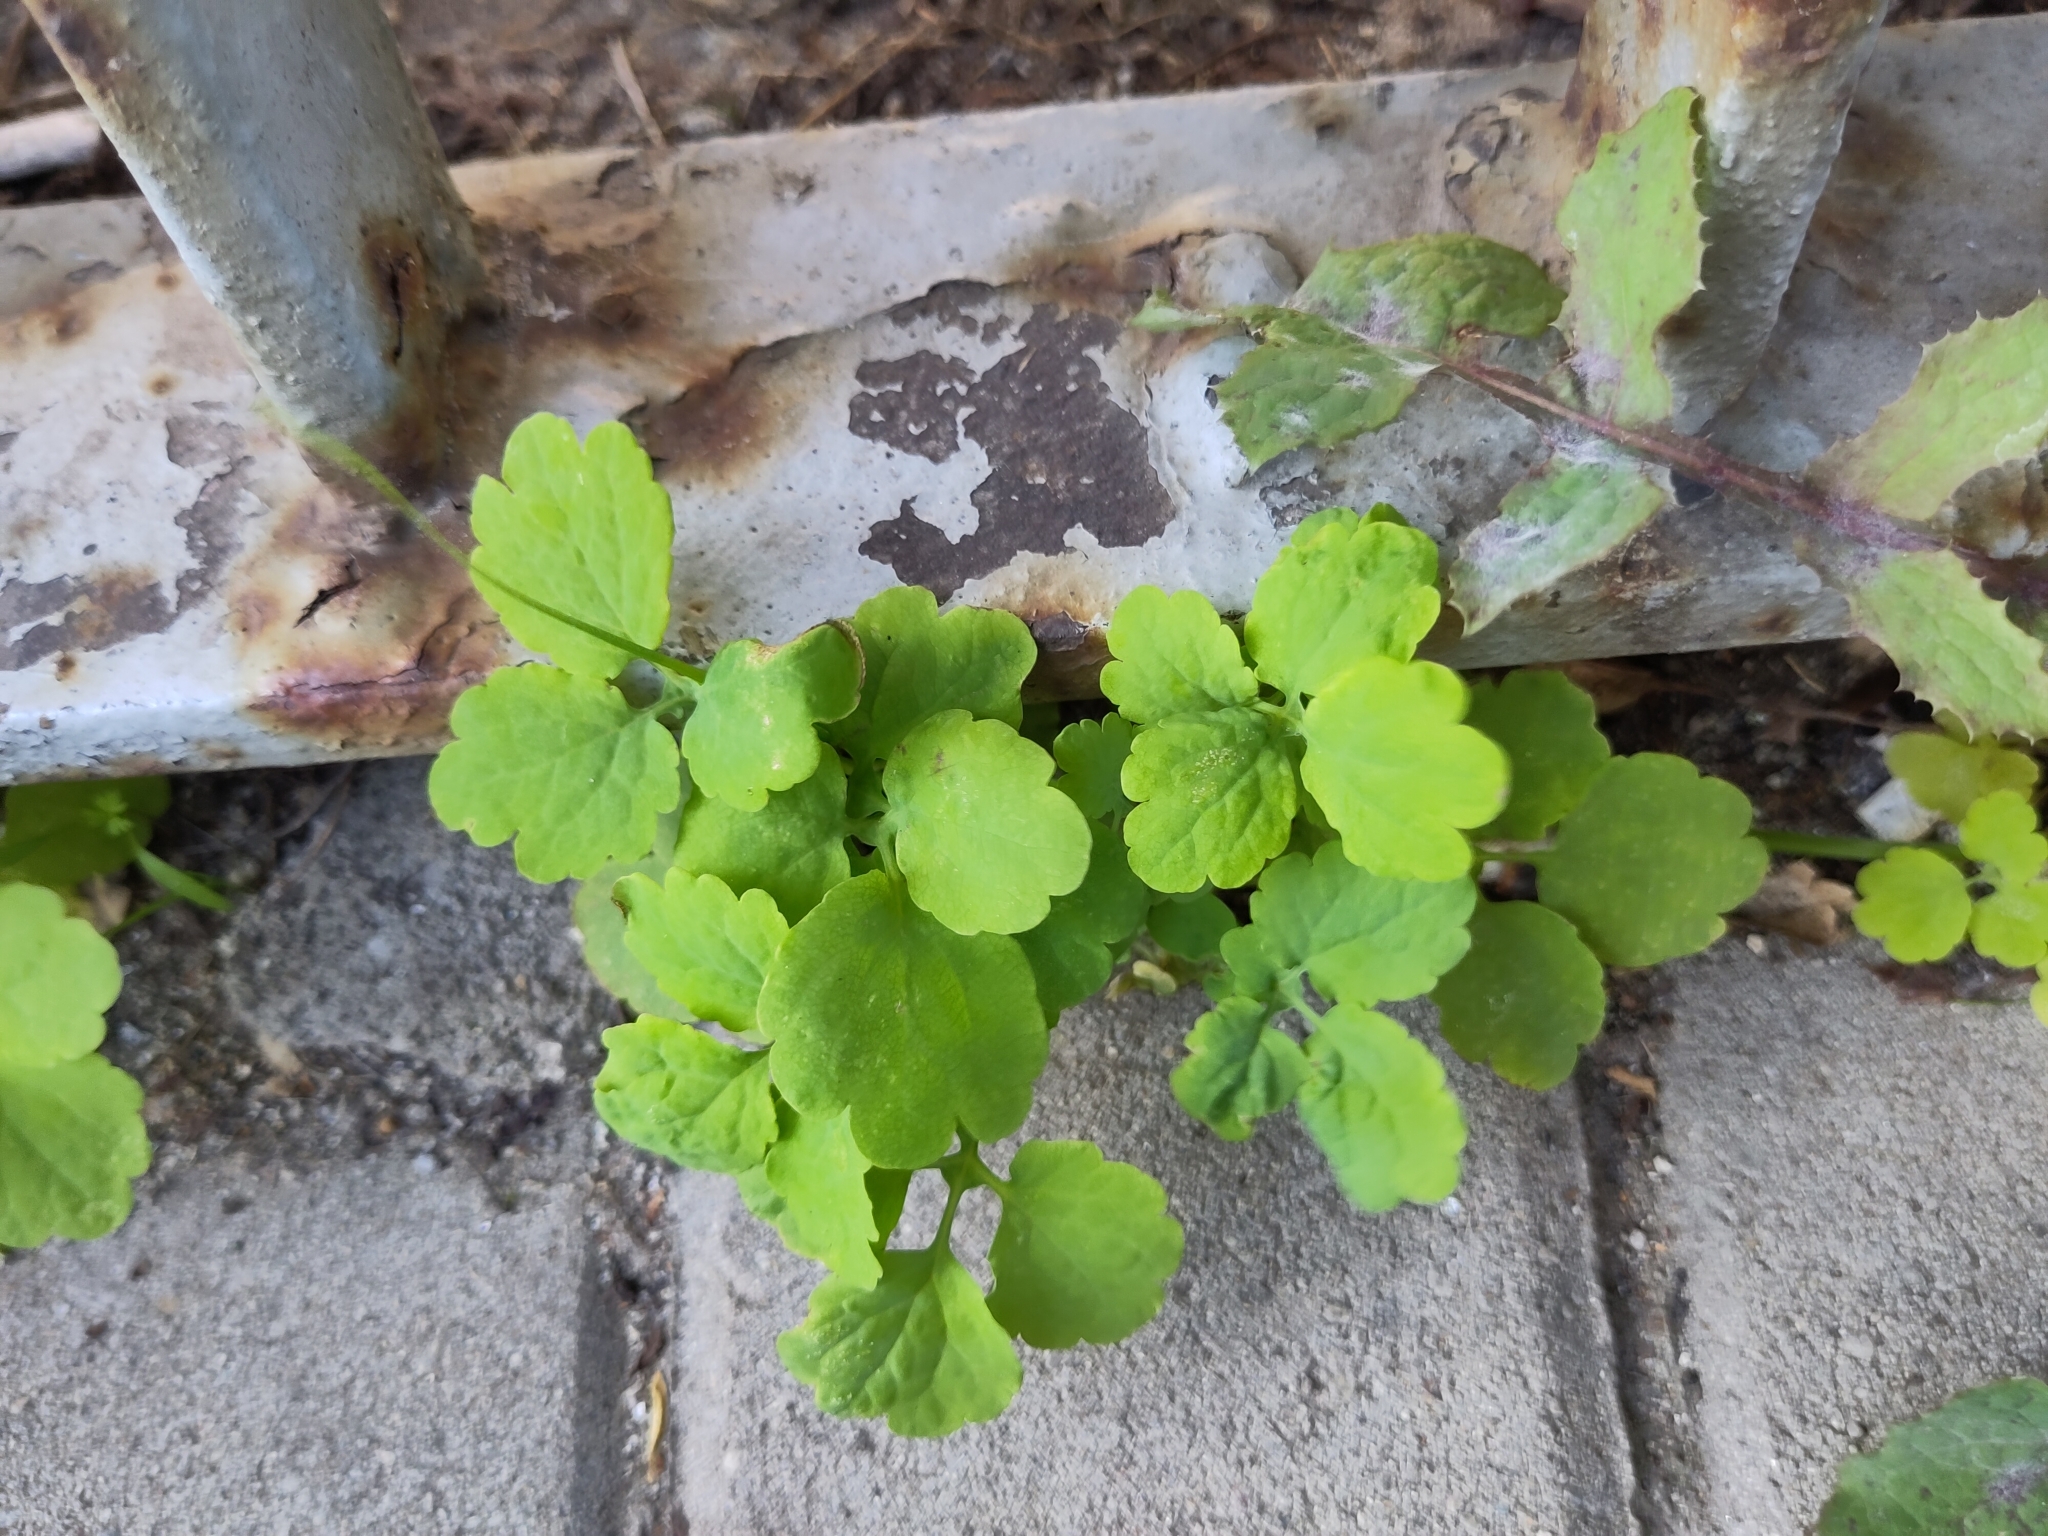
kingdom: Plantae
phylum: Tracheophyta
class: Magnoliopsida
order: Ranunculales
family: Papaveraceae
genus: Chelidonium
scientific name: Chelidonium majus
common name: Greater celandine
